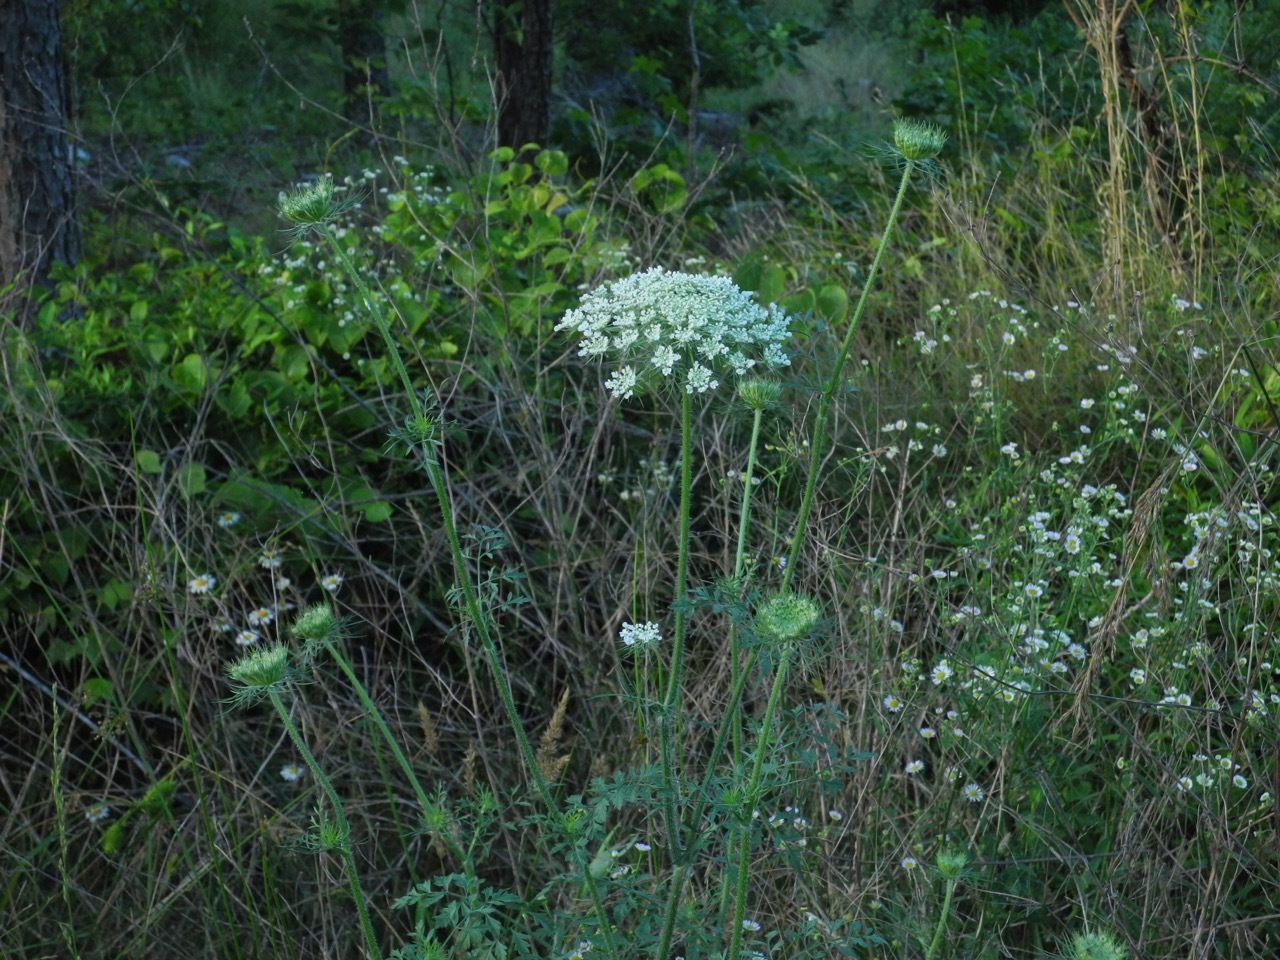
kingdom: Plantae
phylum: Tracheophyta
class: Magnoliopsida
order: Apiales
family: Apiaceae
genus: Daucus
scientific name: Daucus carota
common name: Wild carrot
